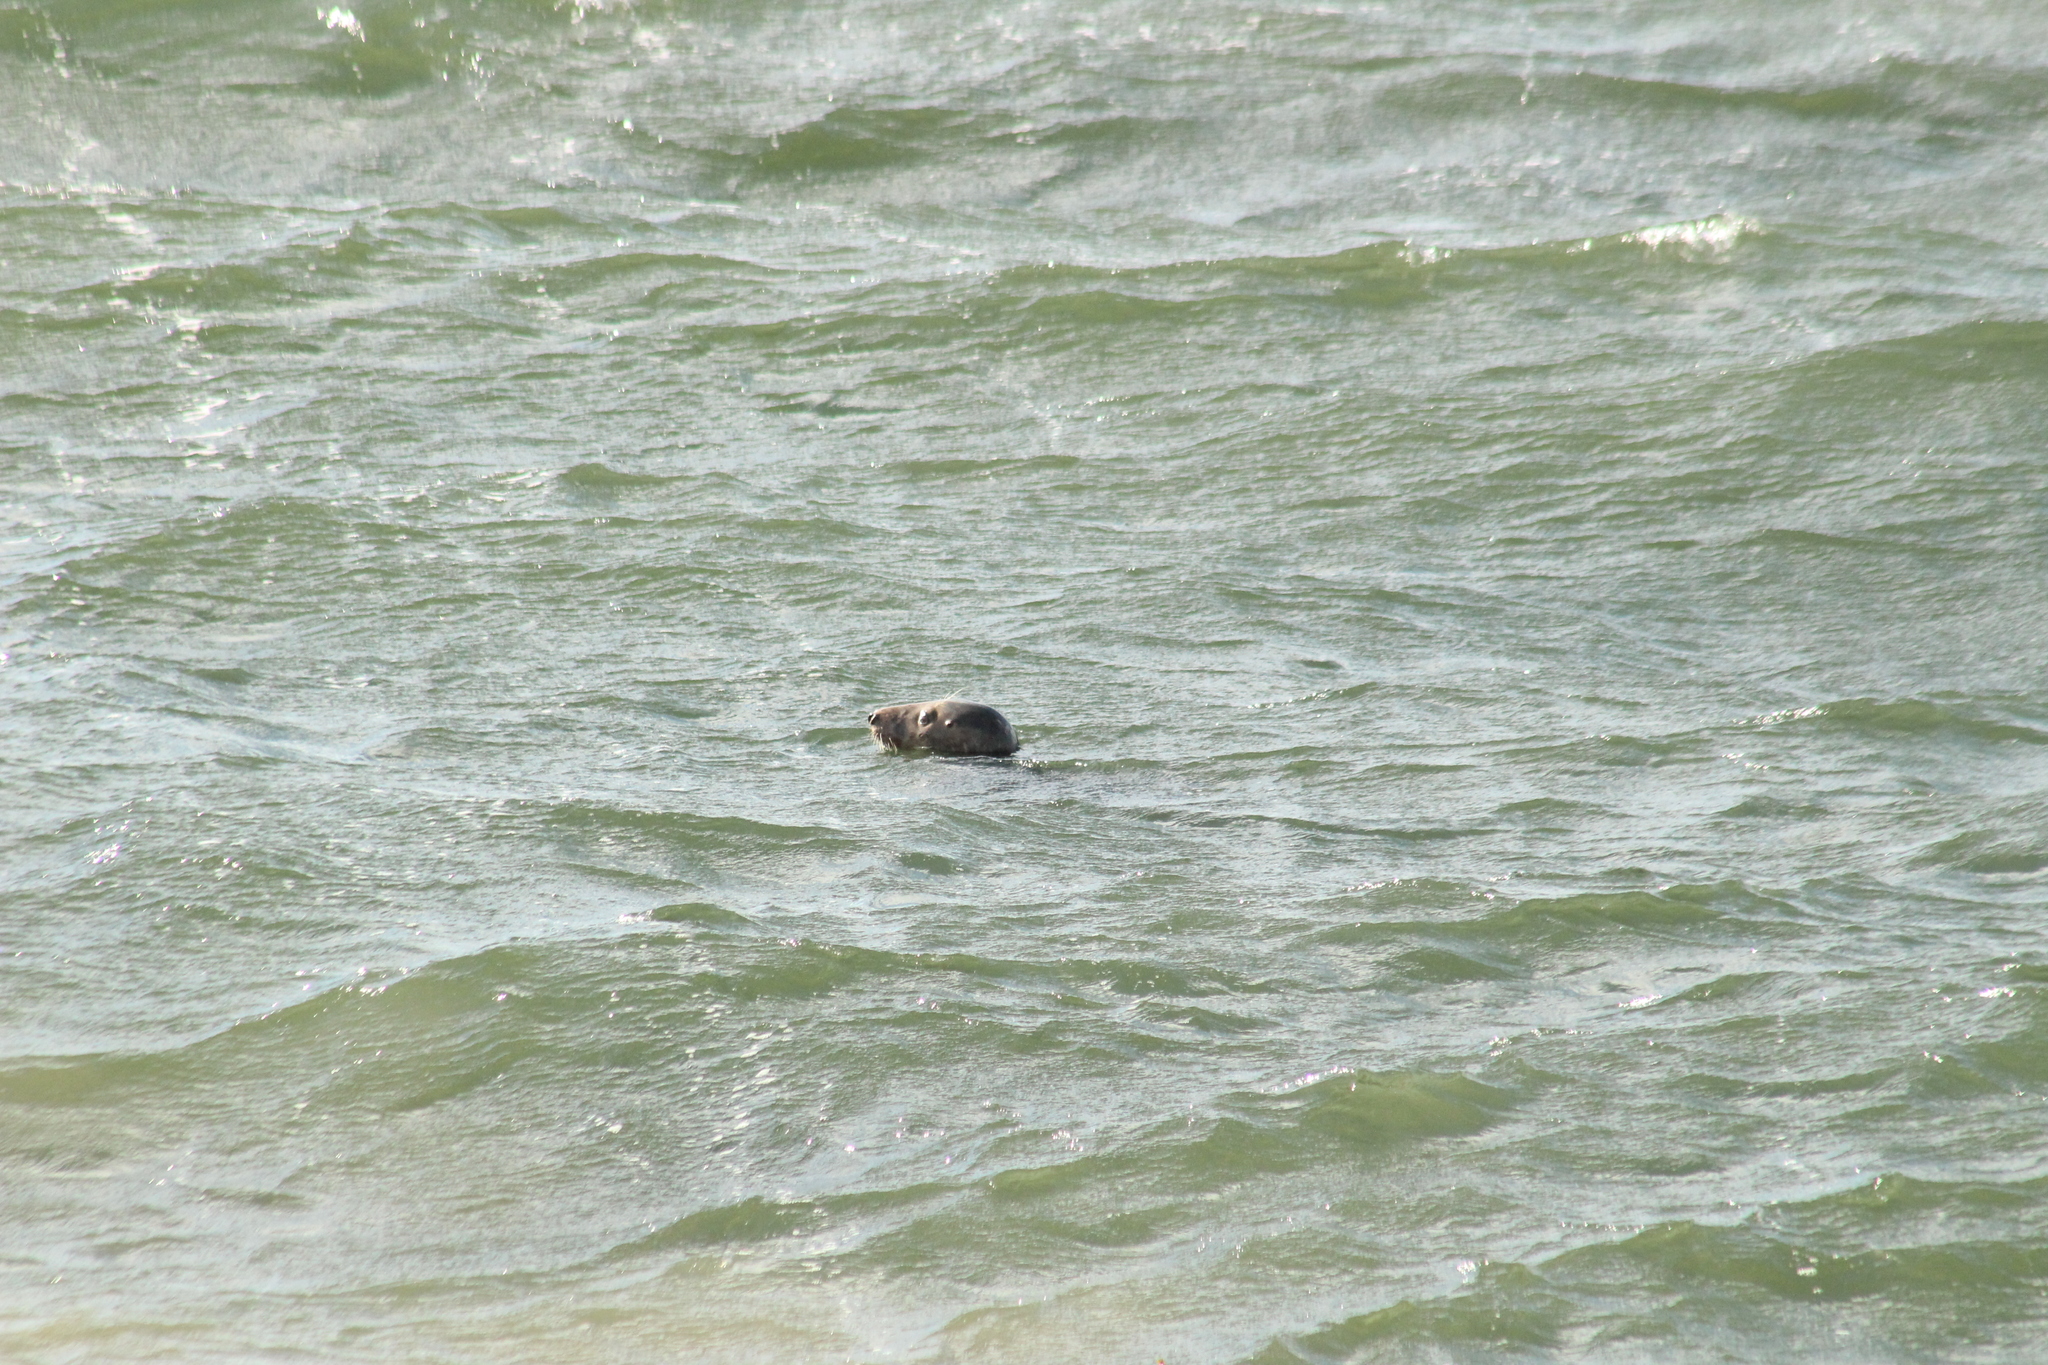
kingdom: Animalia
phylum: Chordata
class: Mammalia
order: Carnivora
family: Phocidae
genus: Halichoerus
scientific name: Halichoerus grypus
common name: Grey seal
